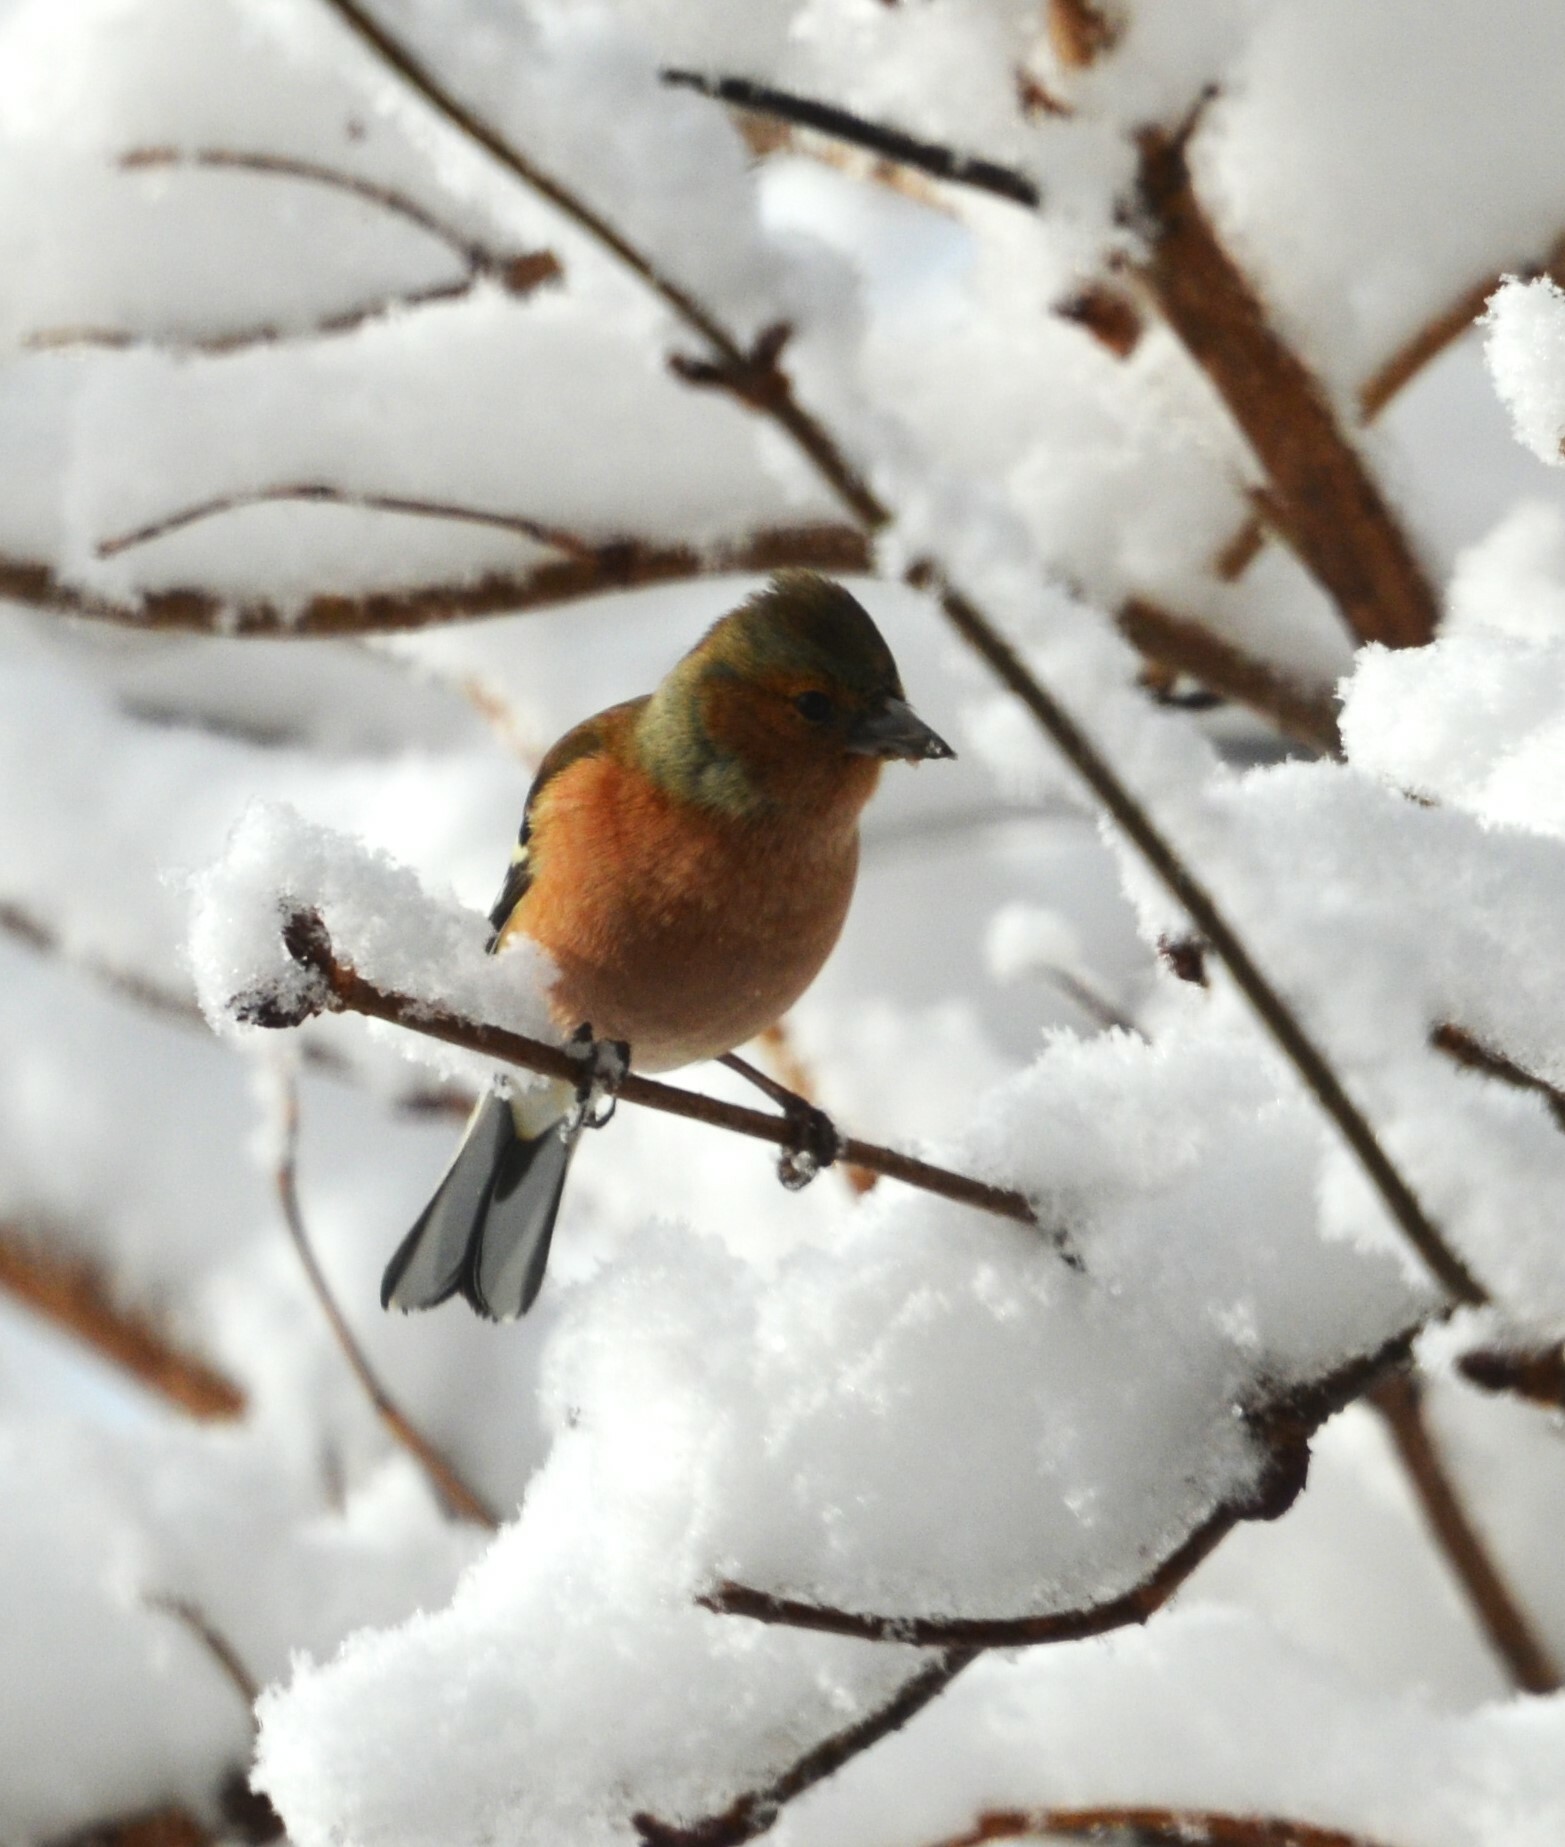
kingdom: Animalia
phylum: Chordata
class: Aves
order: Passeriformes
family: Fringillidae
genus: Fringilla
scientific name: Fringilla coelebs
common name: Common chaffinch
